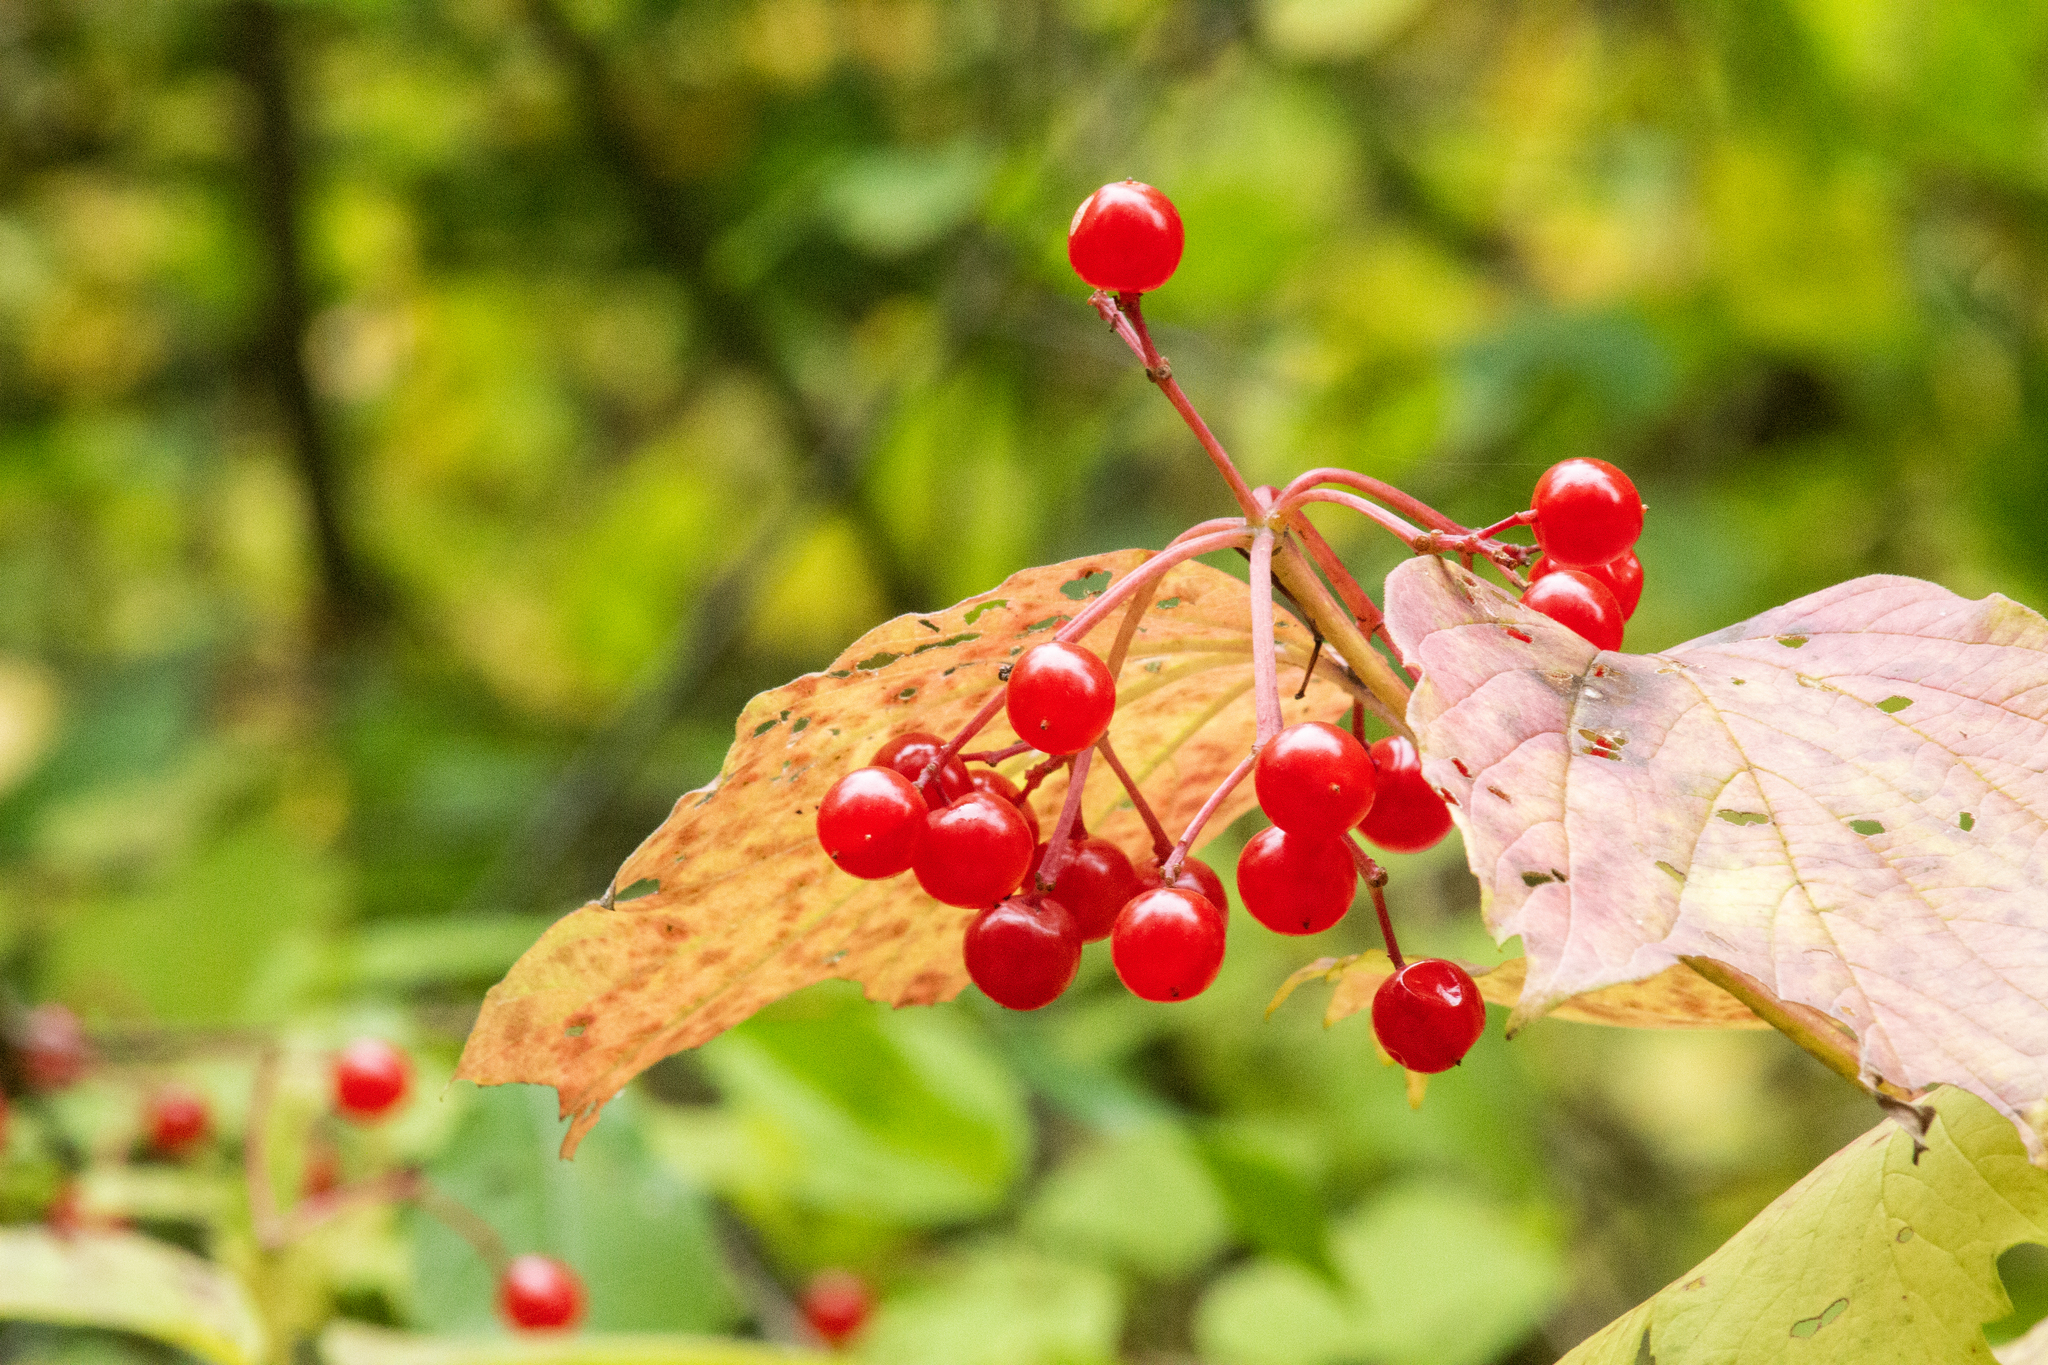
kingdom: Plantae
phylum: Tracheophyta
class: Magnoliopsida
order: Dipsacales
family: Viburnaceae
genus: Viburnum
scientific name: Viburnum opulus
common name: Guelder-rose
